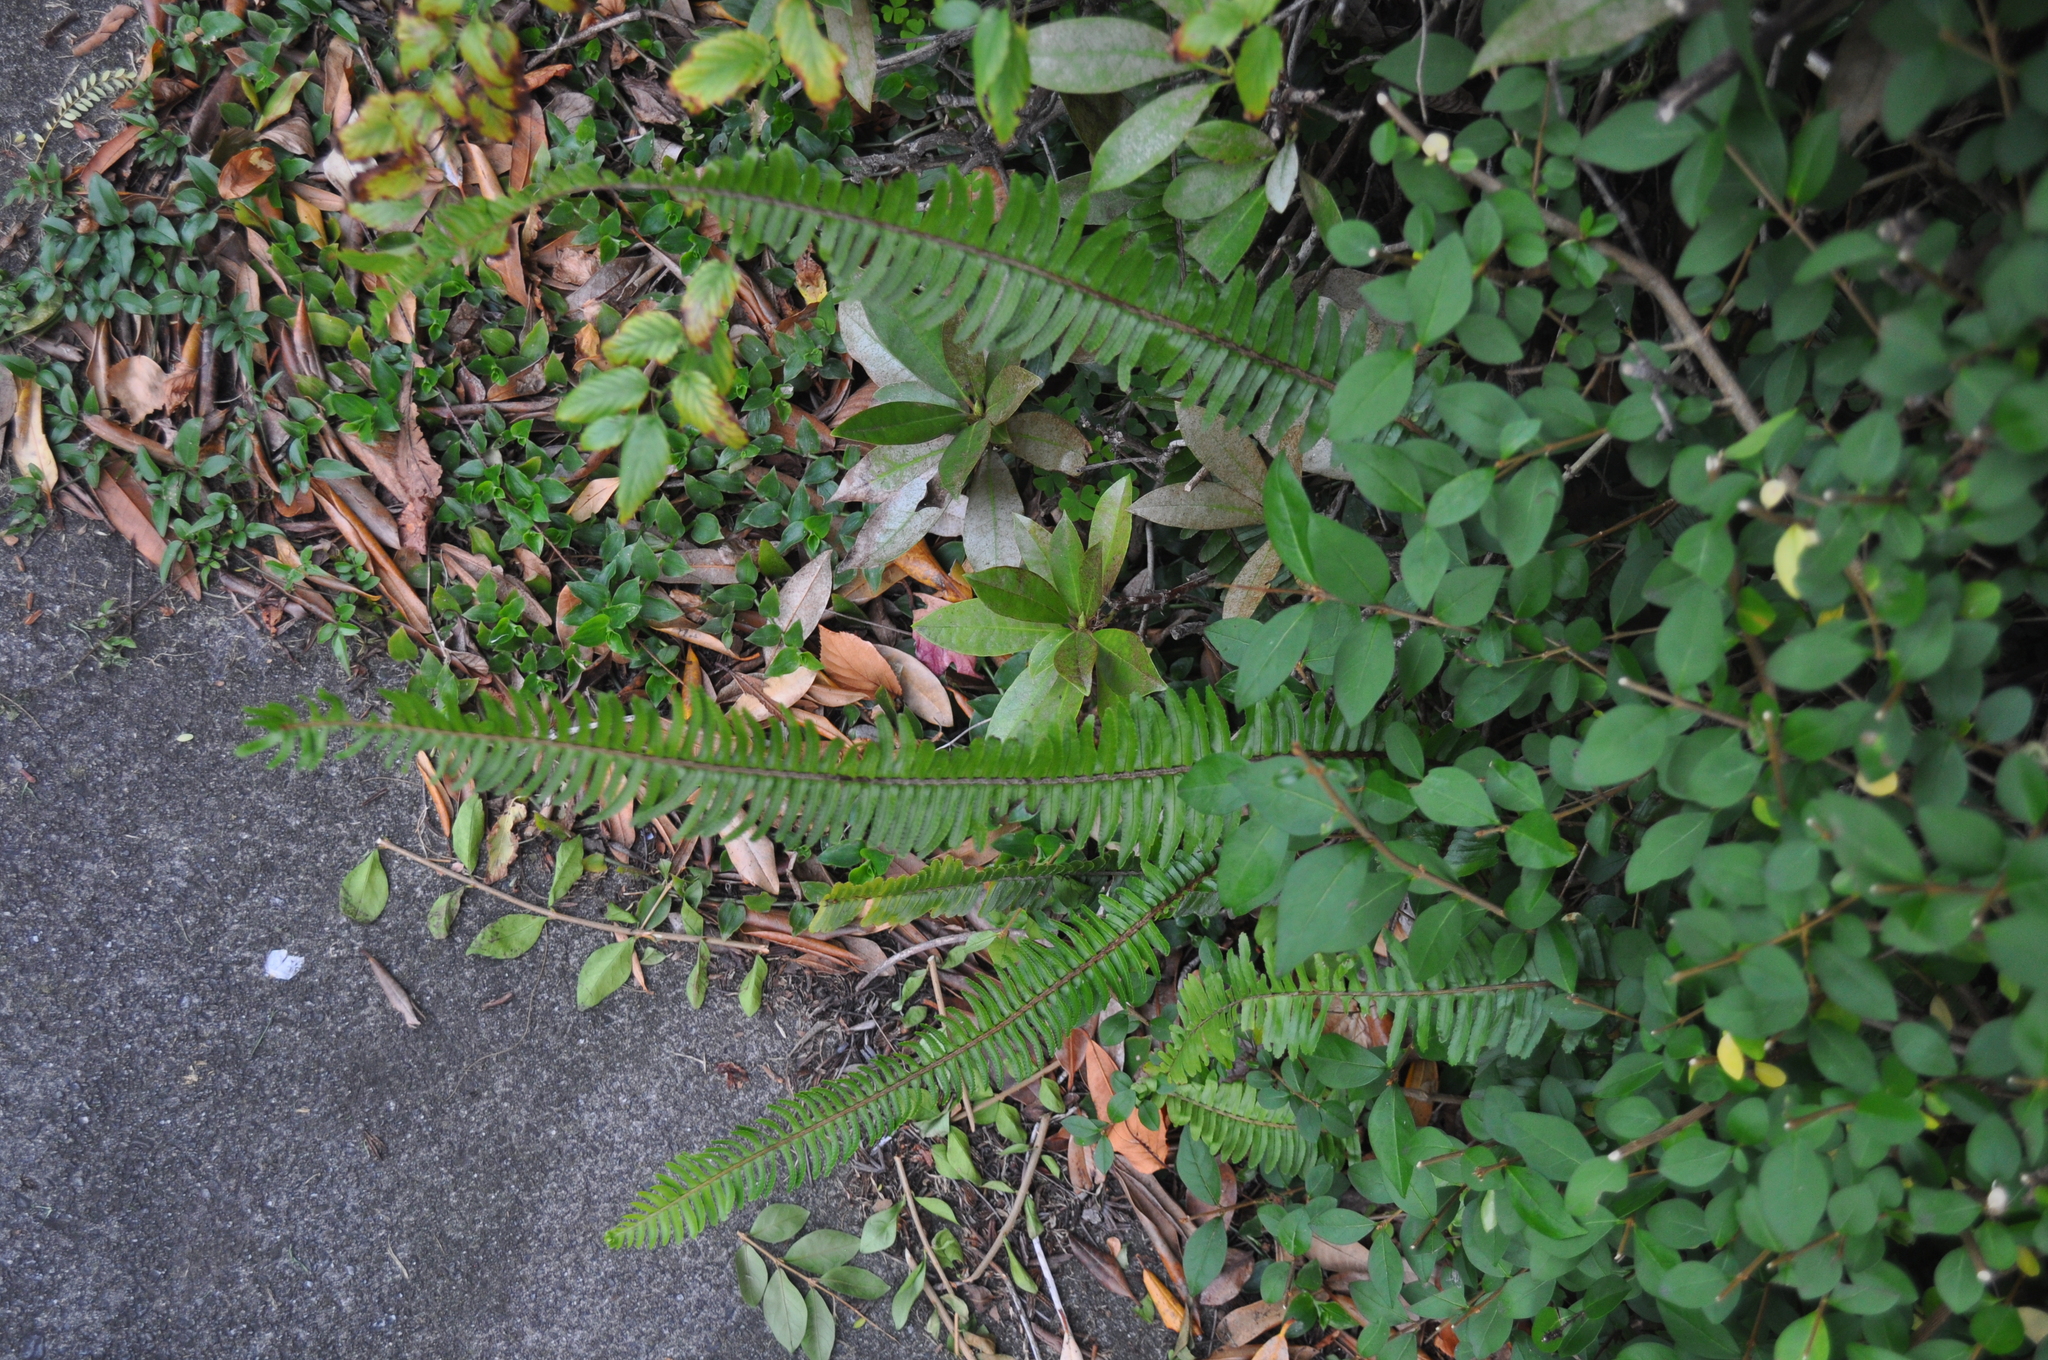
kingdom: Plantae
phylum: Tracheophyta
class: Polypodiopsida
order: Polypodiales
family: Nephrolepidaceae
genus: Nephrolepis
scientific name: Nephrolepis cordifolia
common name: Narrow swordfern
